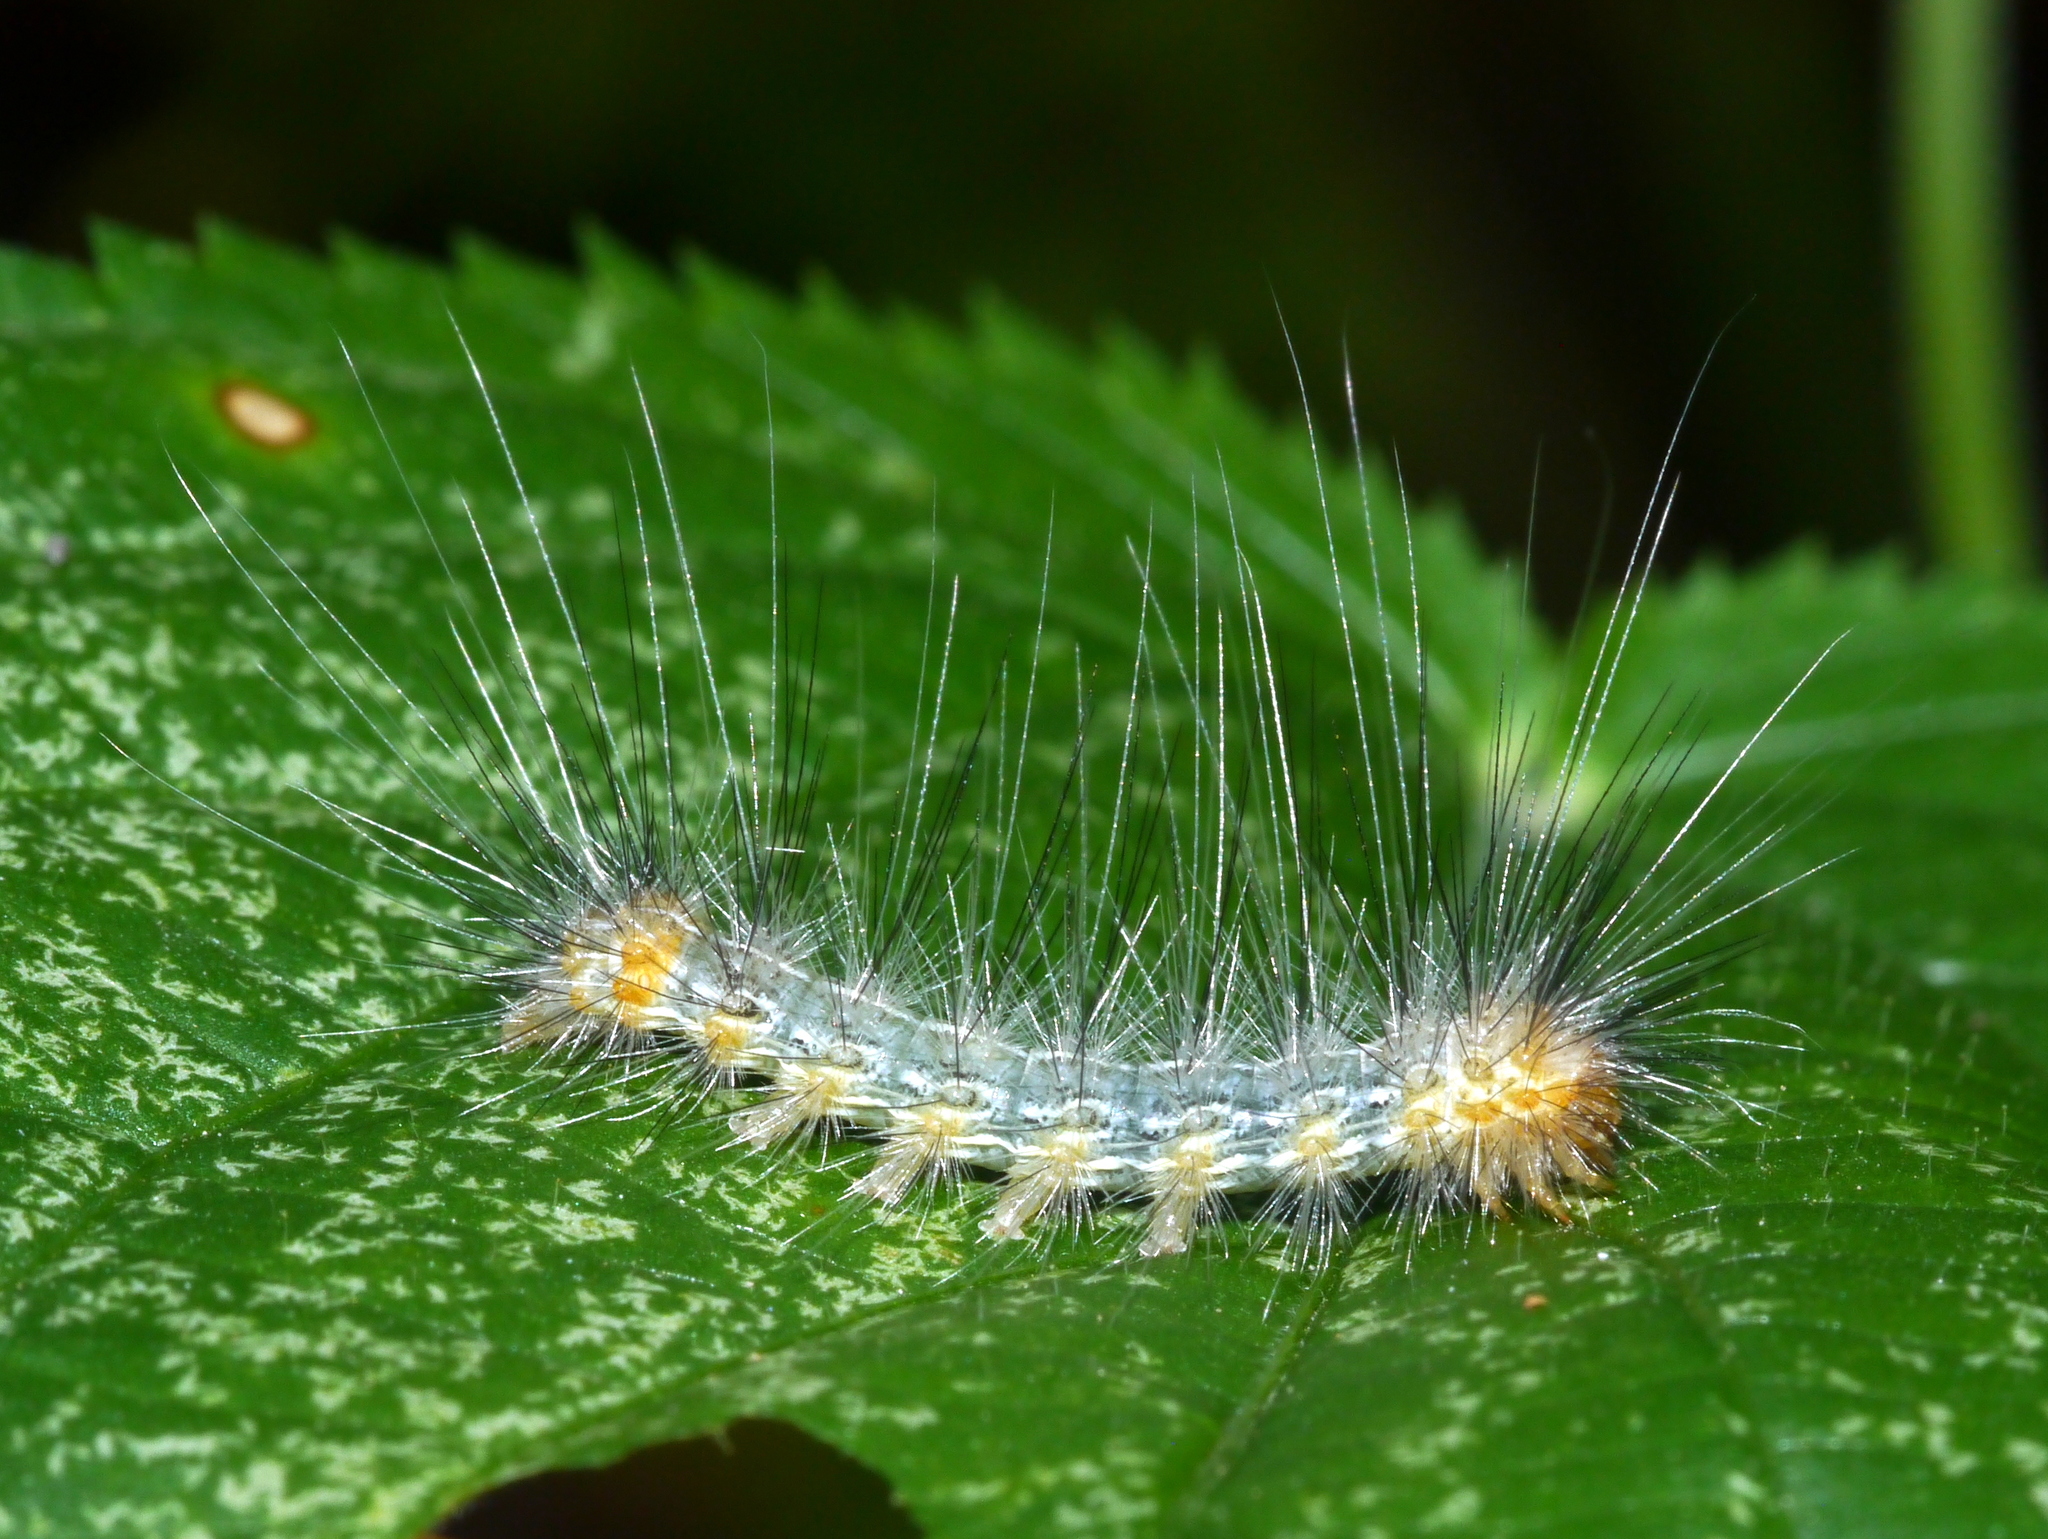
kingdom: Animalia
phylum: Arthropoda
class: Insecta
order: Lepidoptera
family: Erebidae
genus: Hypercompe
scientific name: Hypercompe suffusa
